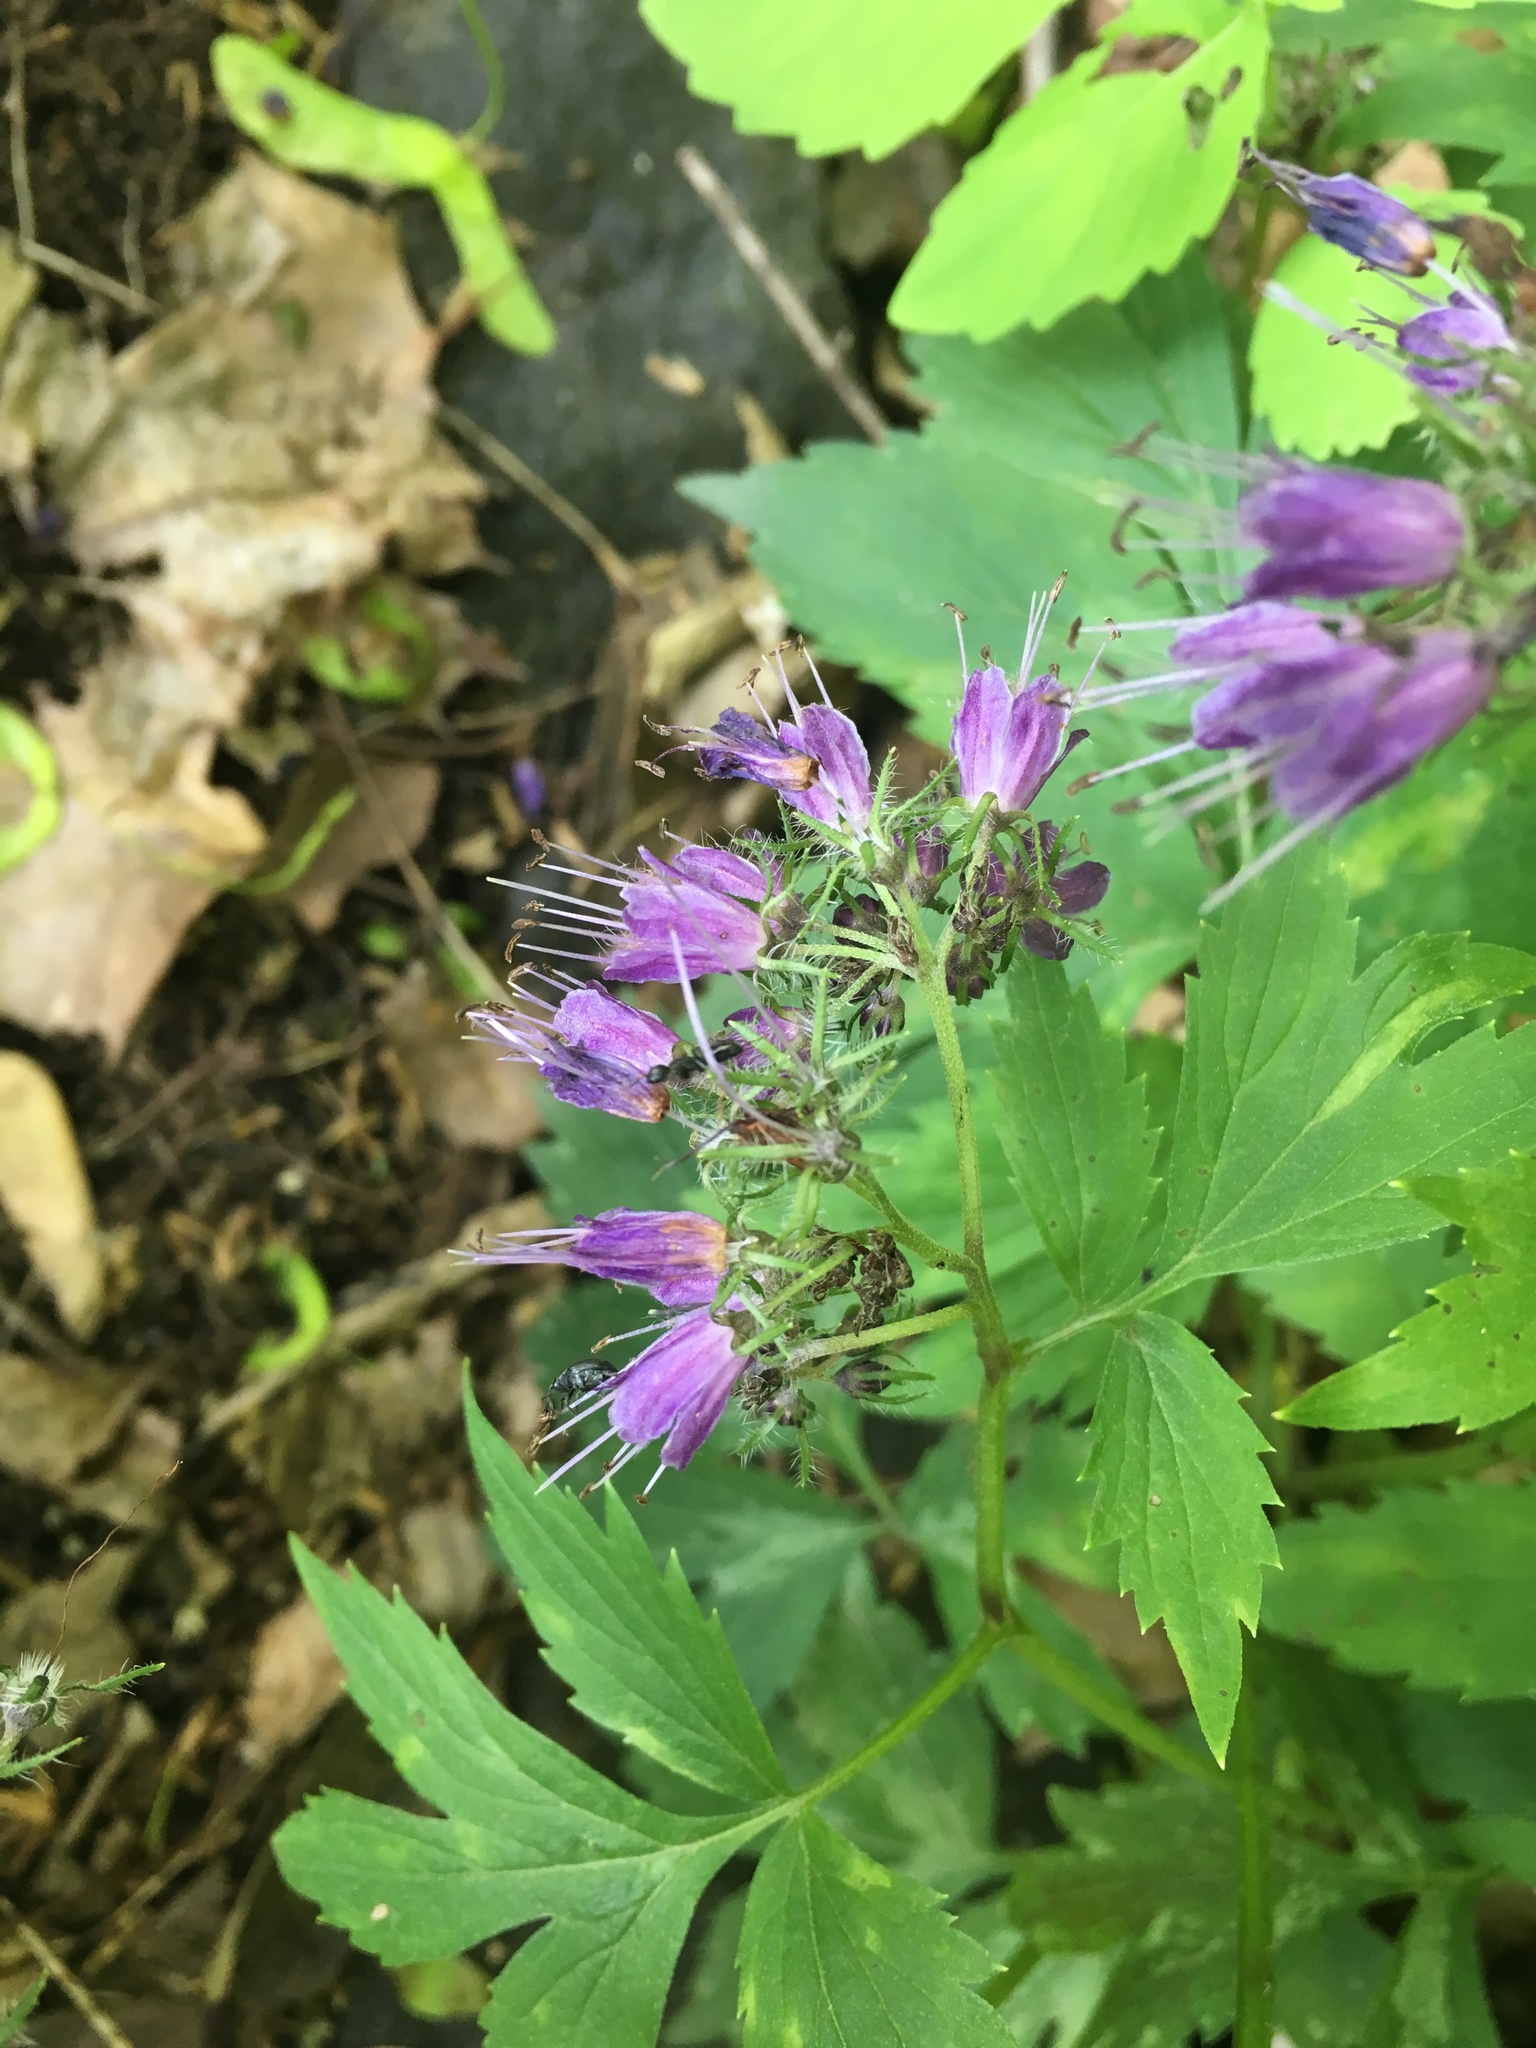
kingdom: Plantae
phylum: Tracheophyta
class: Magnoliopsida
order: Boraginales
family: Hydrophyllaceae
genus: Hydrophyllum
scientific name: Hydrophyllum virginianum
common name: Virginia waterleaf
